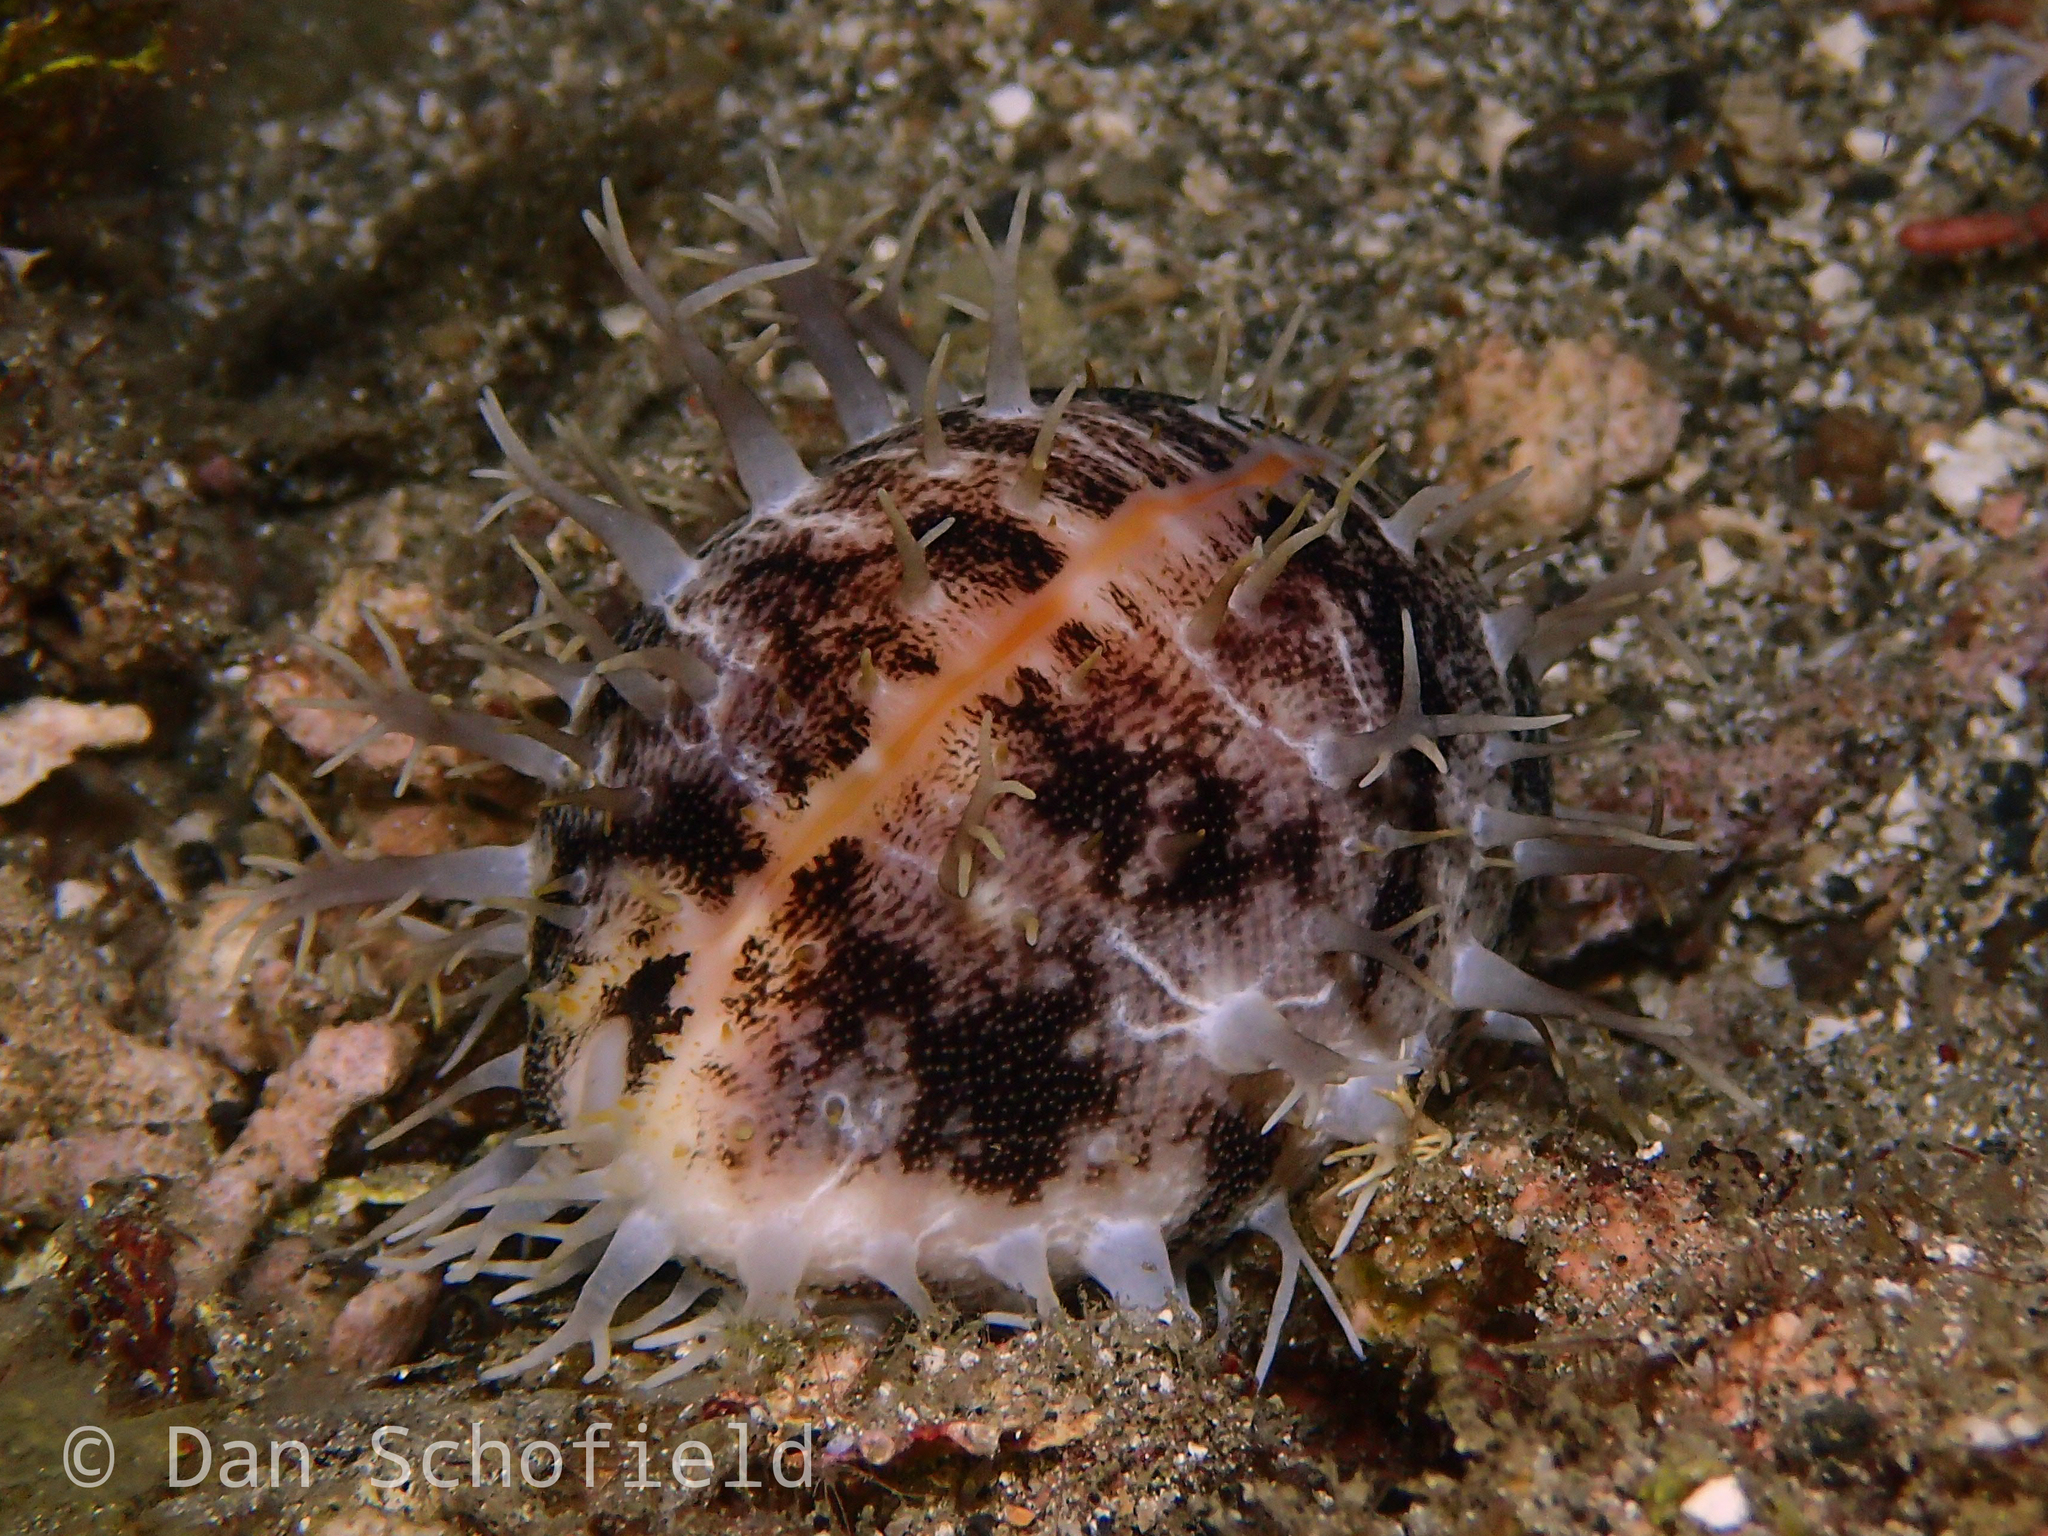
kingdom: Animalia
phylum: Mollusca
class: Gastropoda
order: Littorinimorpha
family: Cypraeidae
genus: Lyncina
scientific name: Lyncina vitellus
